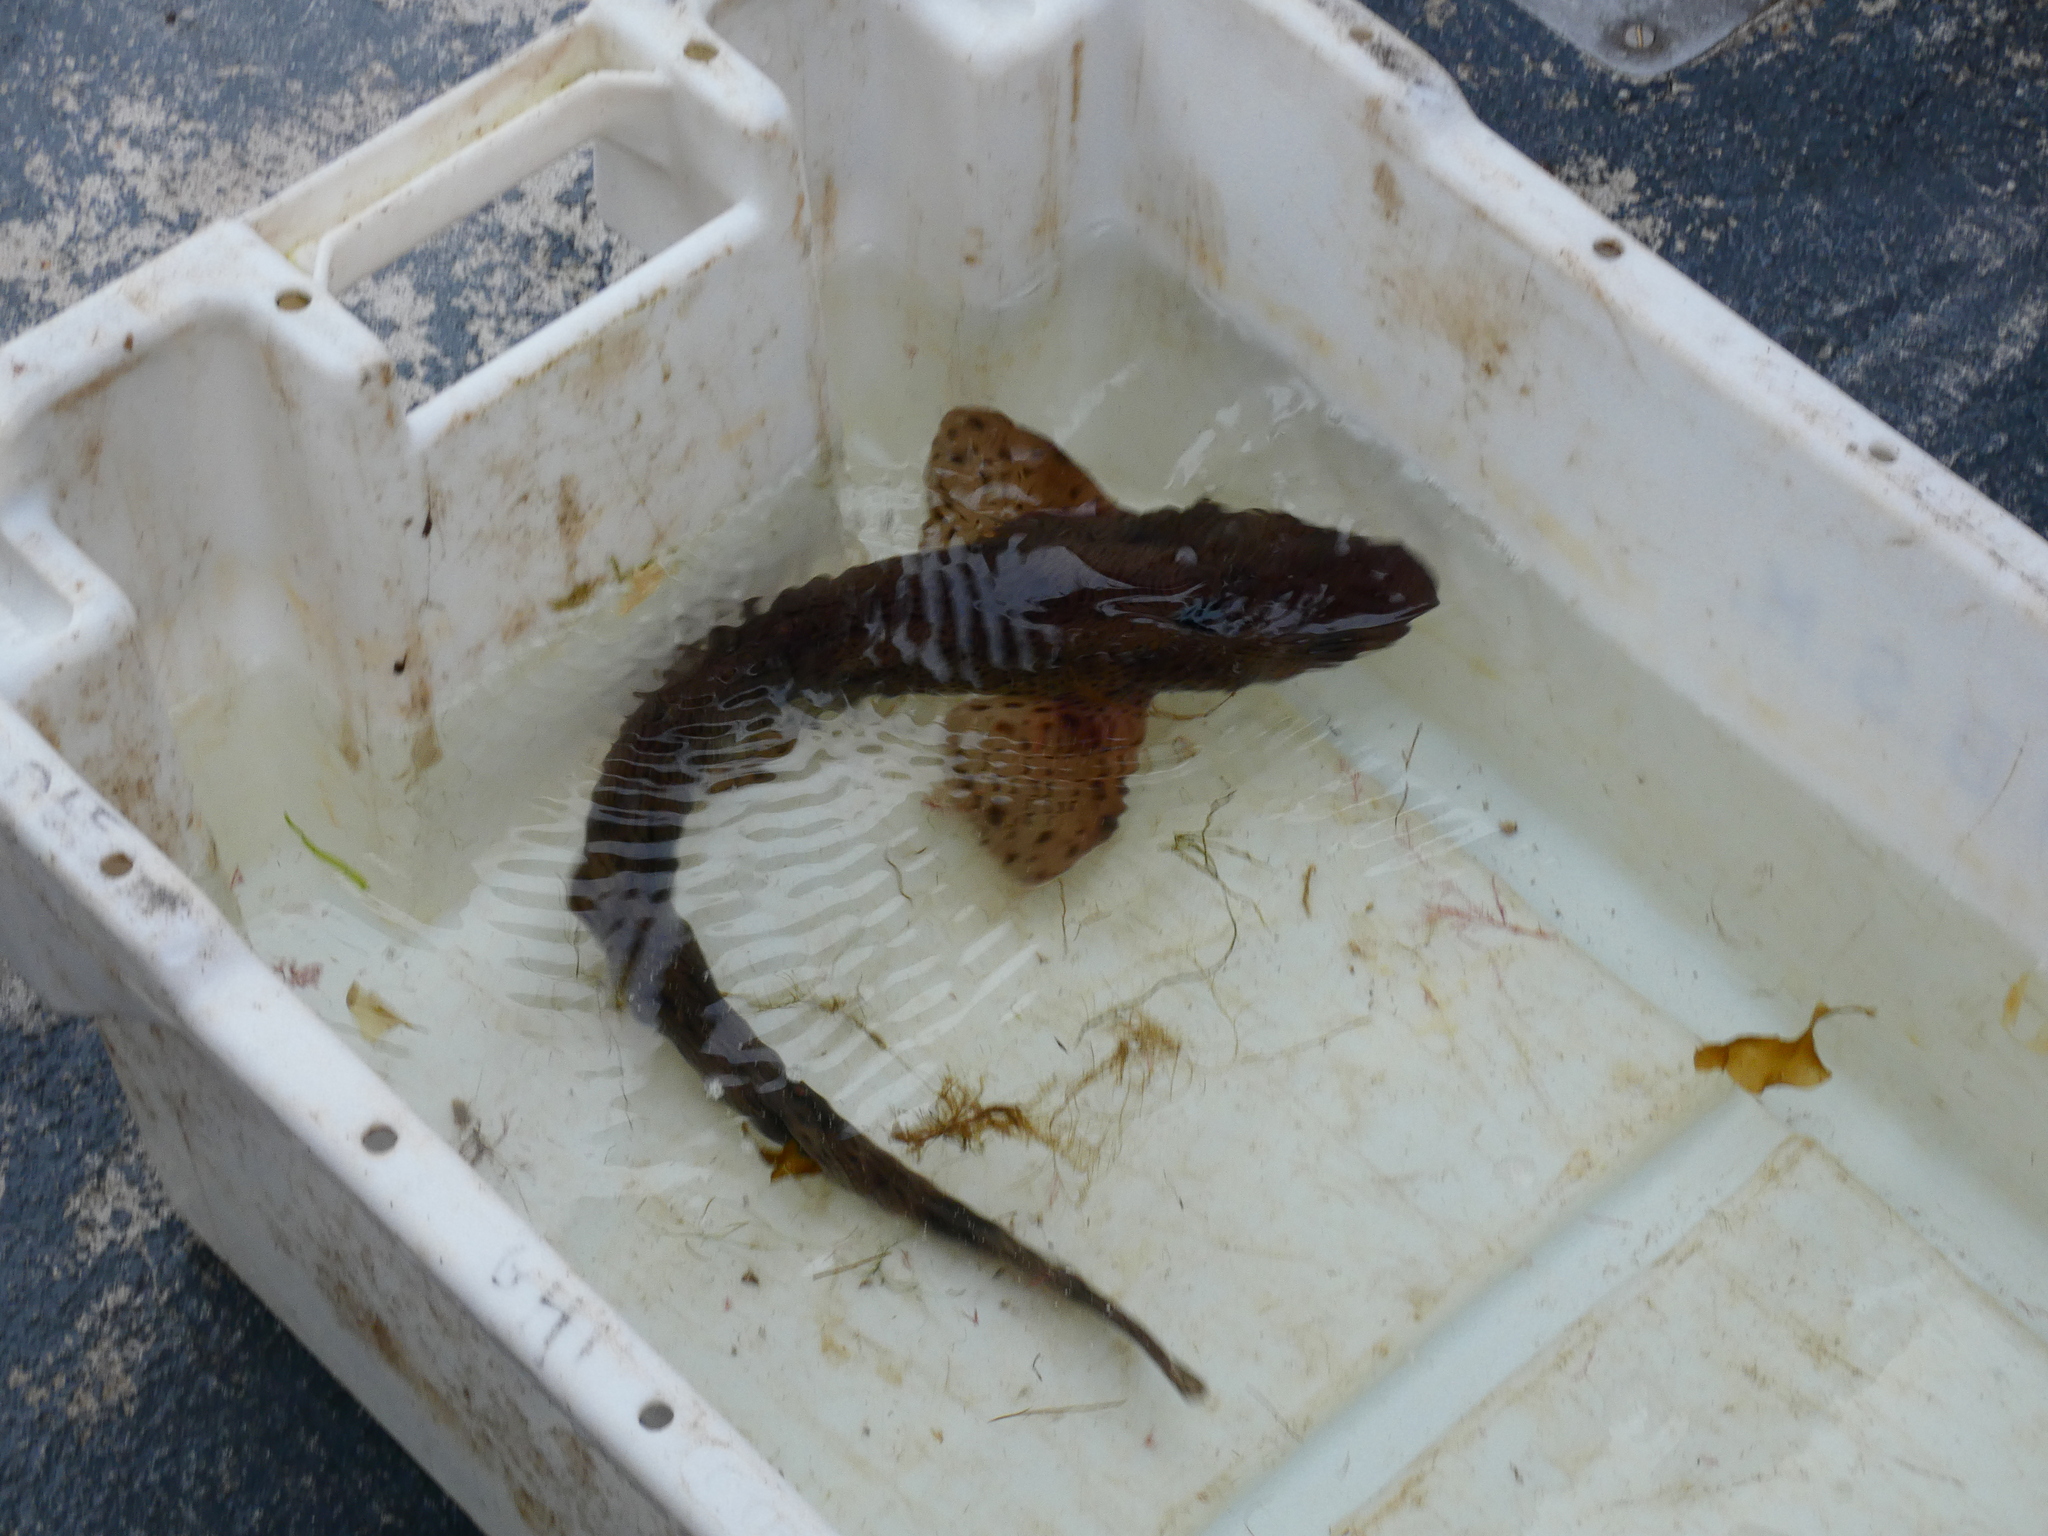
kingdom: Animalia
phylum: Chordata
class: Elasmobranchii
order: Carcharhiniformes
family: Scyliorhinidae
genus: Scyliorhinus
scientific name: Scyliorhinus canicula
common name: Lesser spotted dogfish
